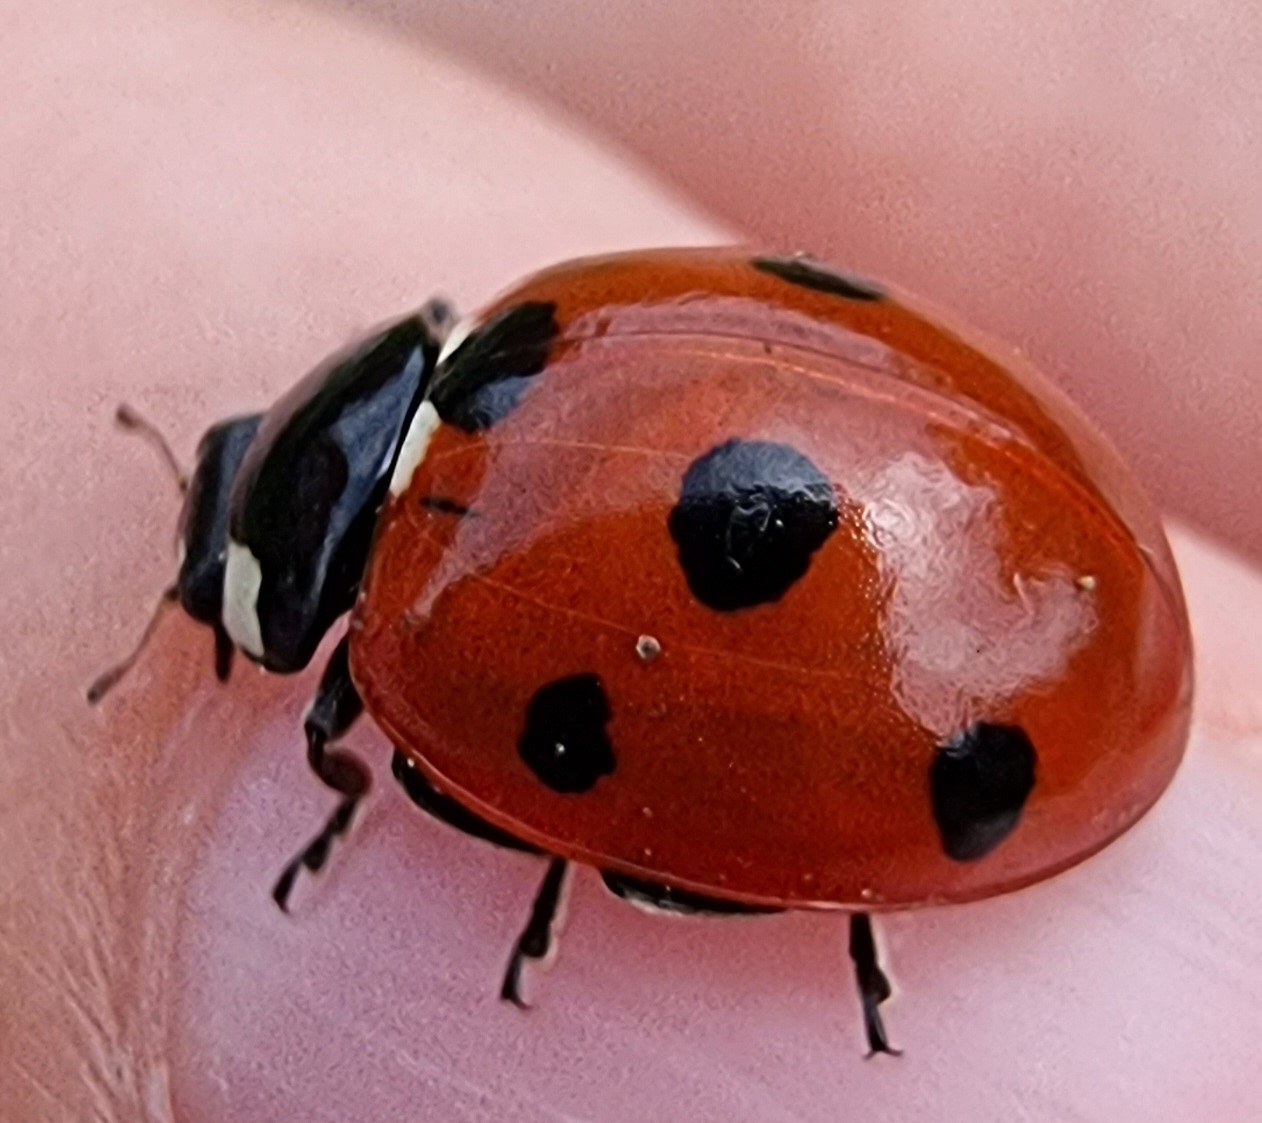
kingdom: Animalia
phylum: Arthropoda
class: Insecta
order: Coleoptera
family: Coccinellidae
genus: Coccinella
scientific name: Coccinella septempunctata
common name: Sevenspotted lady beetle
